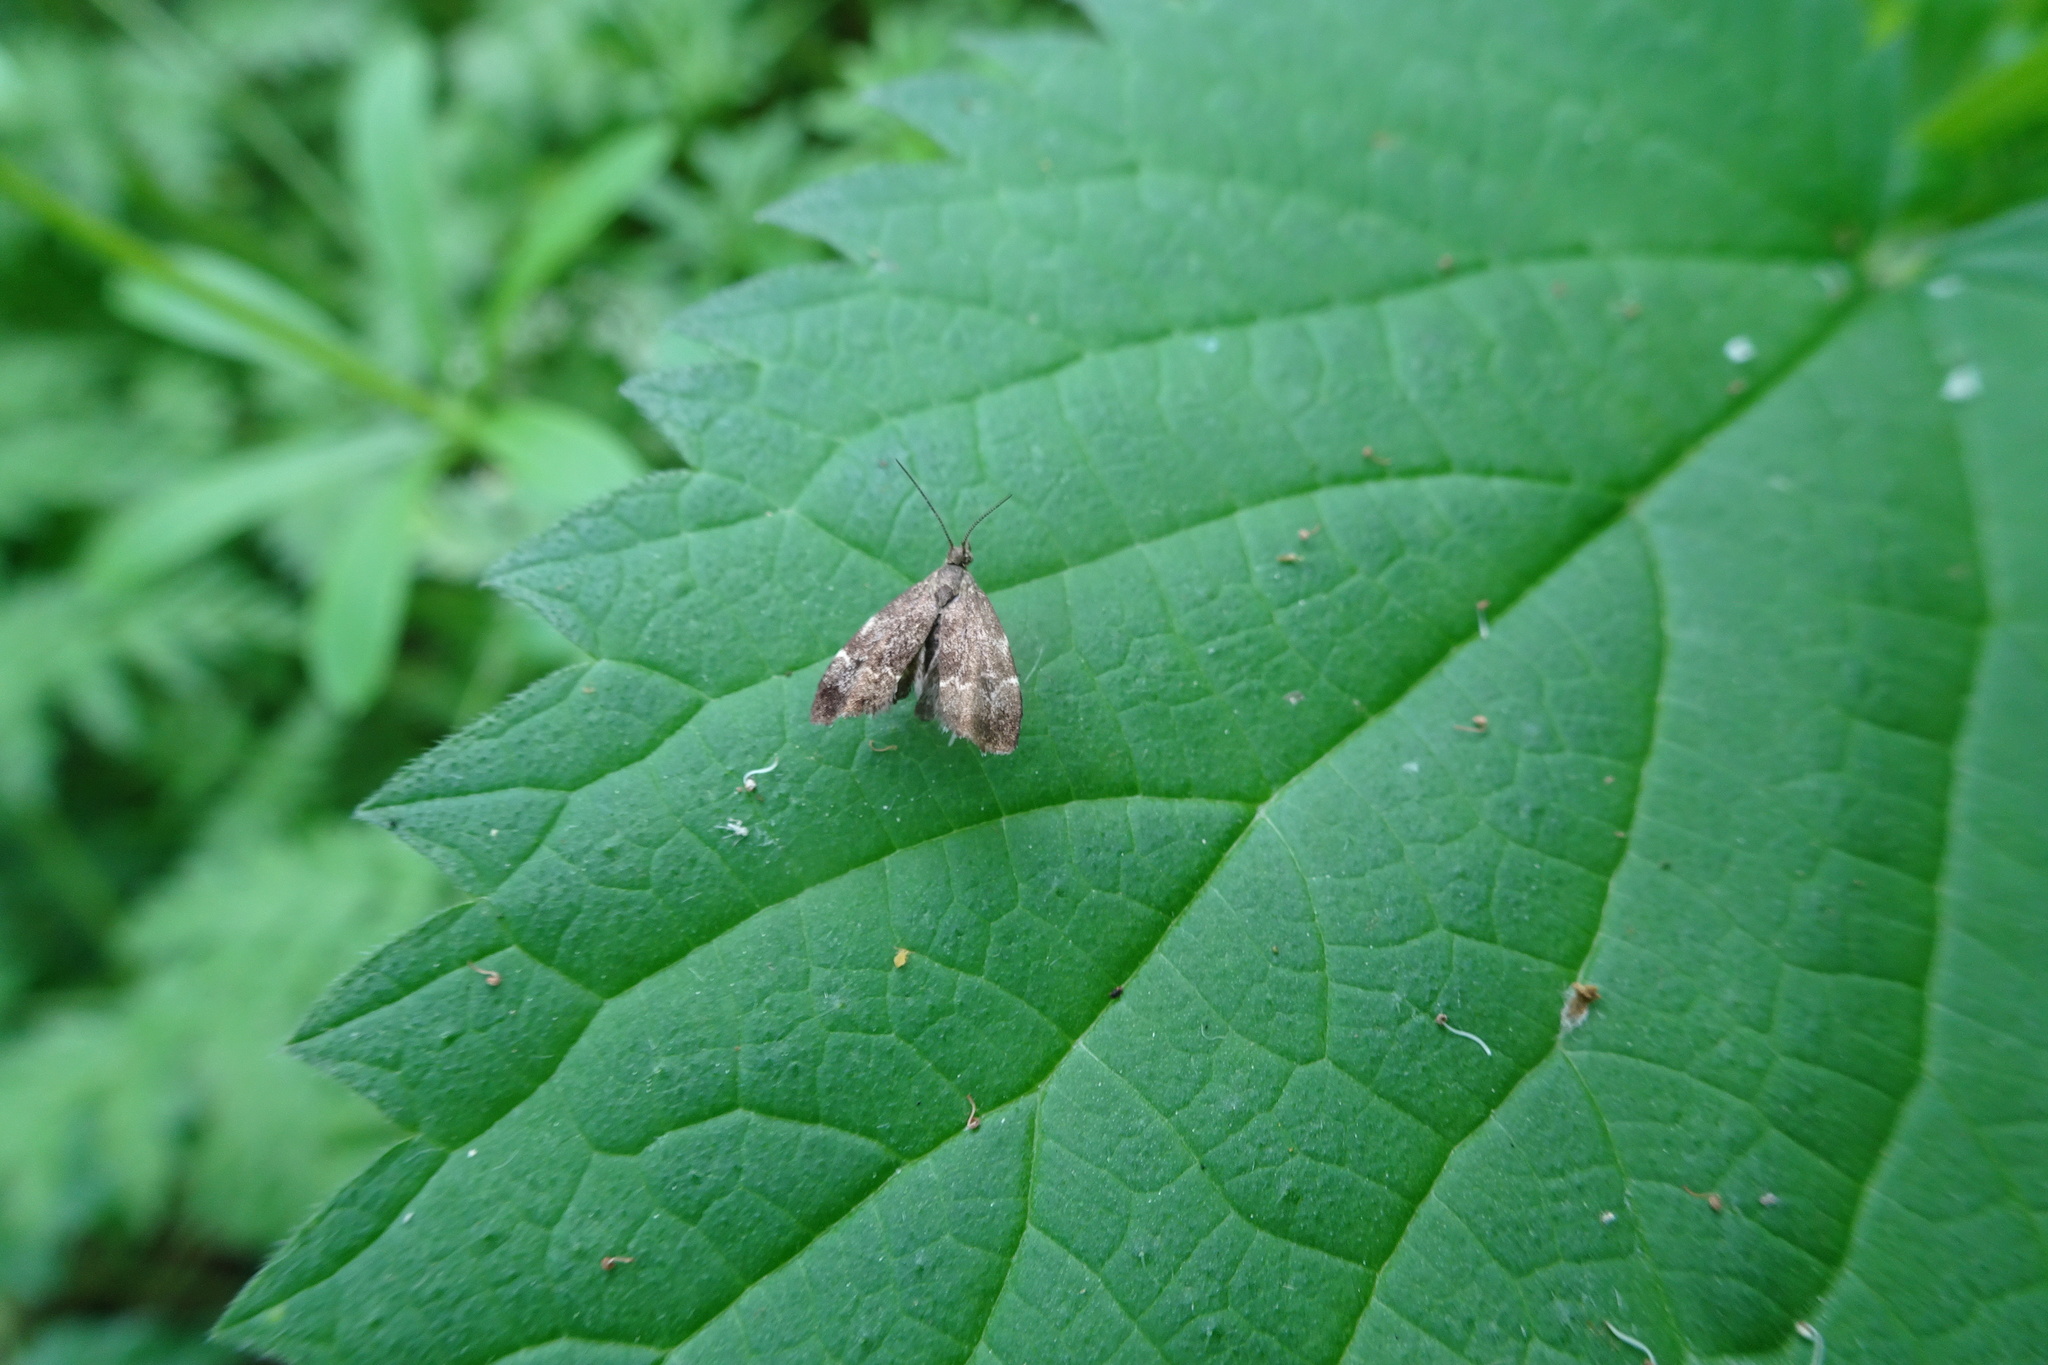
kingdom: Animalia
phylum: Arthropoda
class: Insecta
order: Lepidoptera
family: Choreutidae
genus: Anthophila
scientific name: Anthophila fabriciana
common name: Nettle-tap
